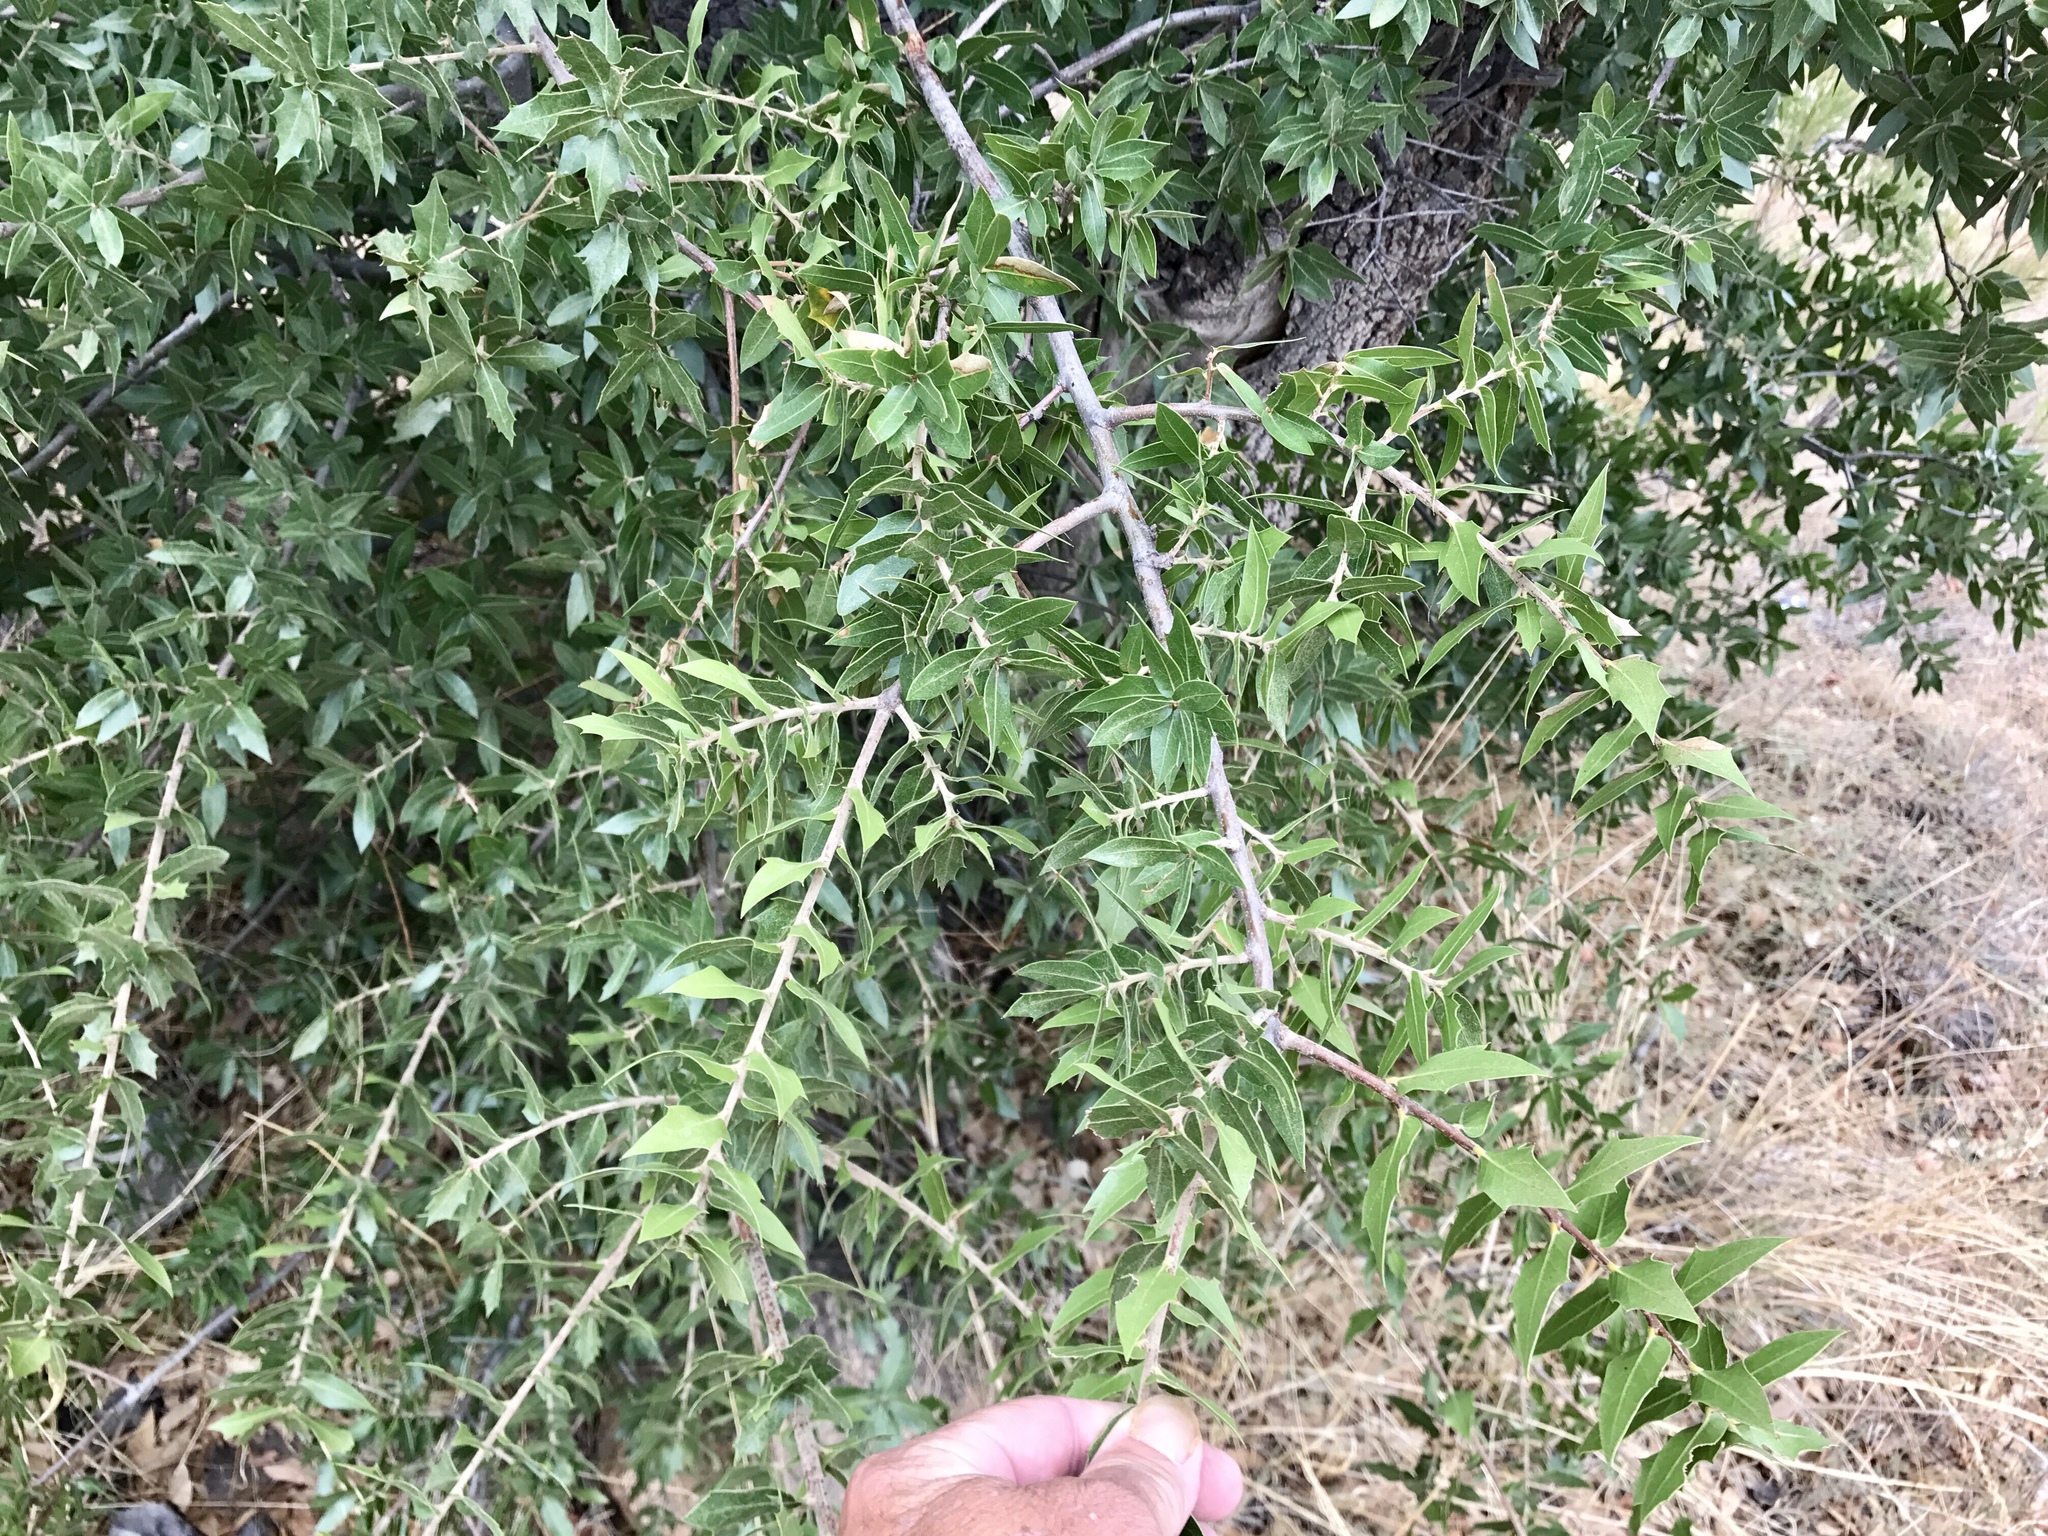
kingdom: Plantae
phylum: Tracheophyta
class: Magnoliopsida
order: Fagales
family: Fagaceae
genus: Quercus
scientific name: Quercus emoryi
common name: Emory oak
